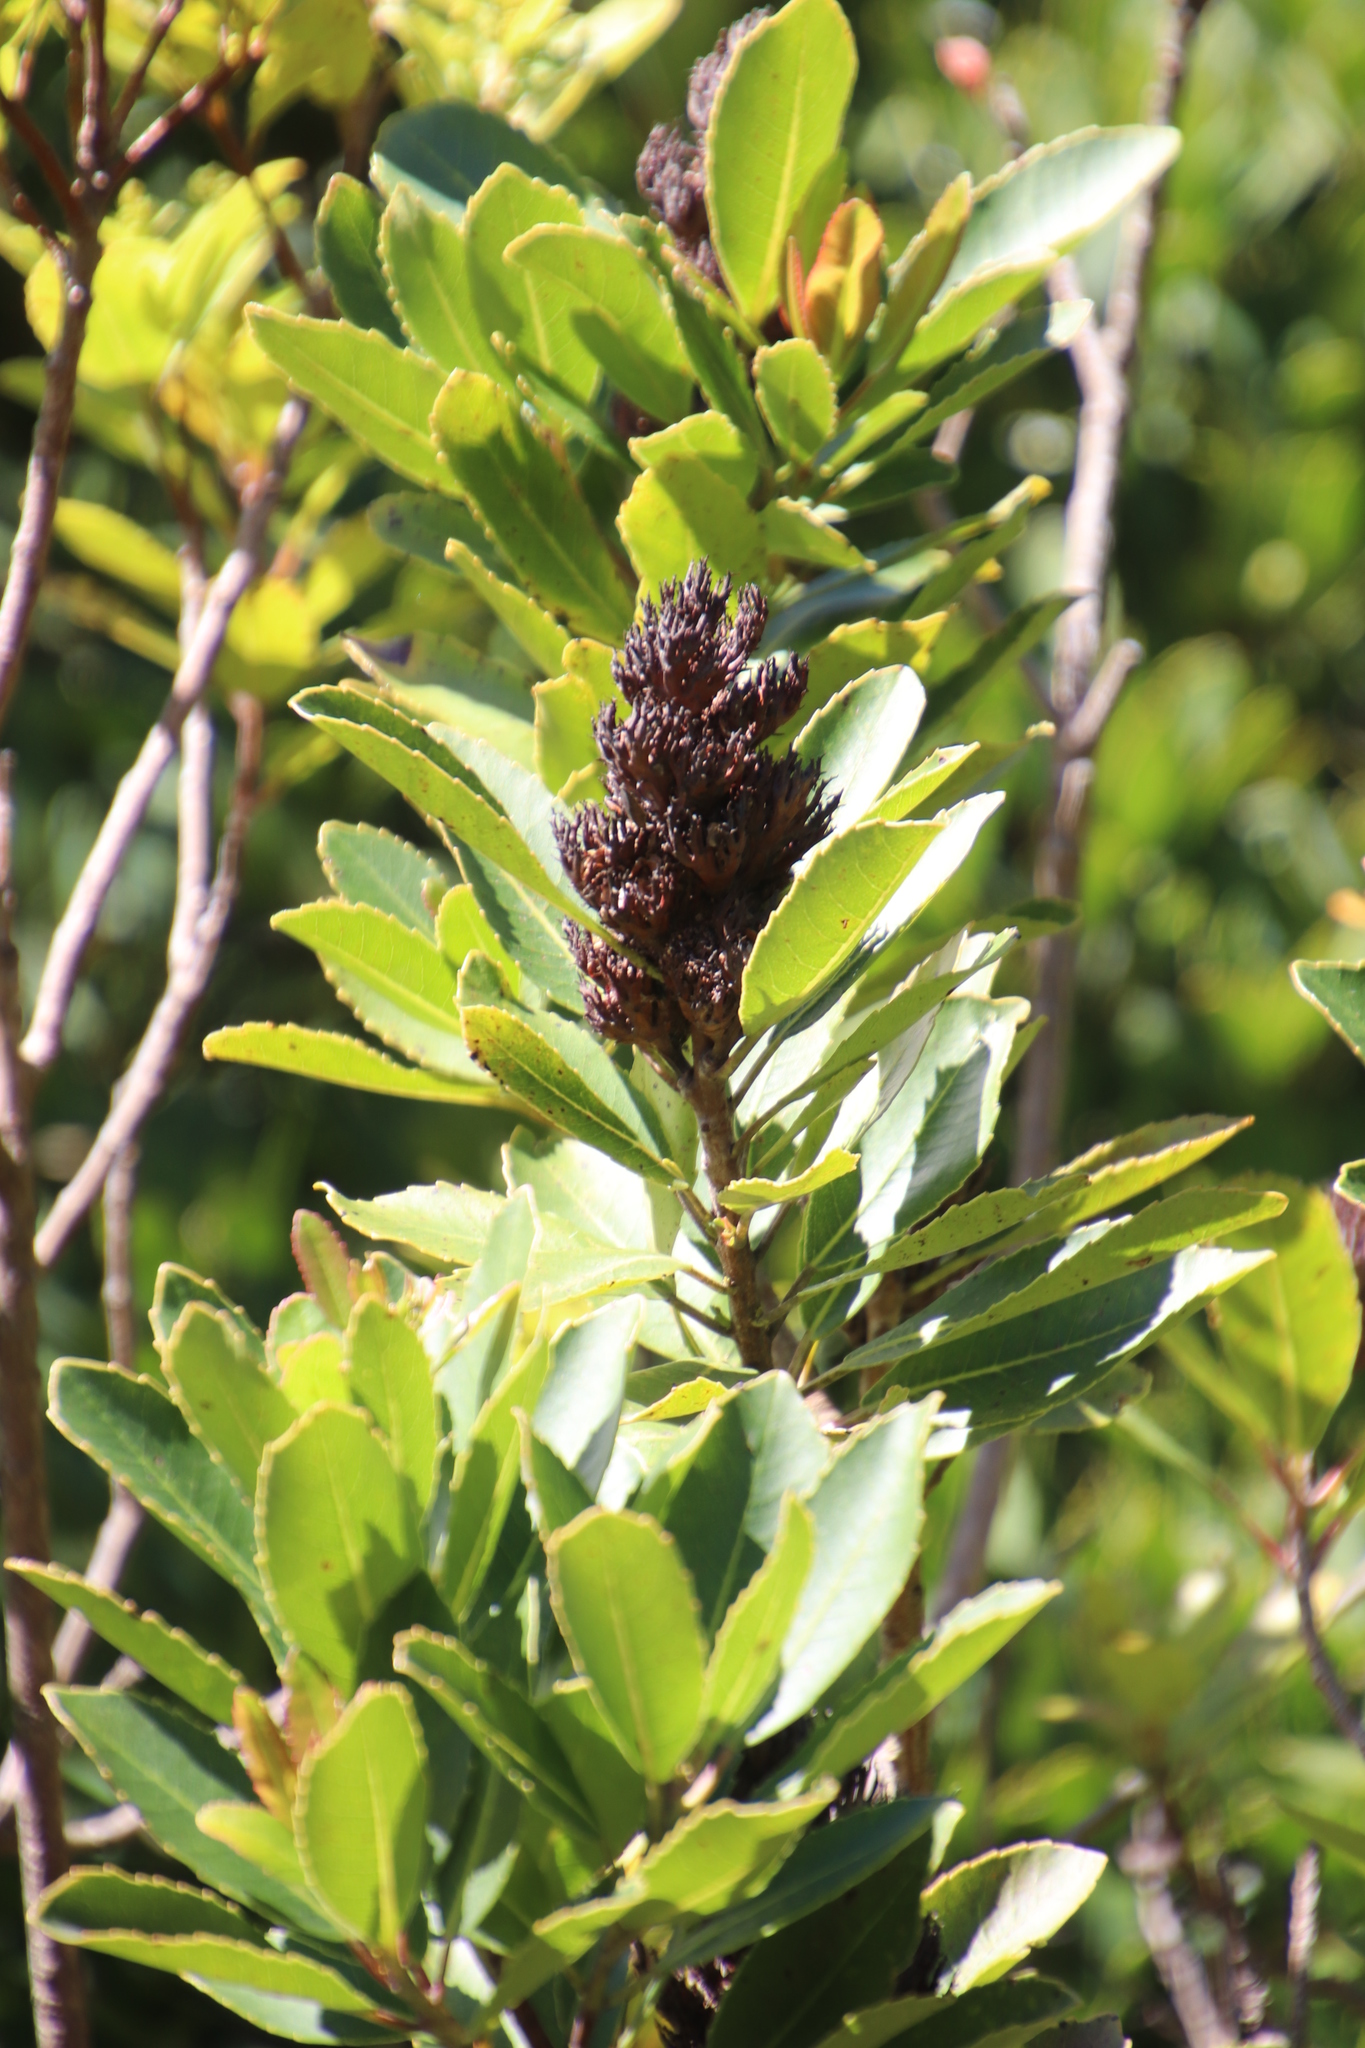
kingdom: Plantae
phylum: Tracheophyta
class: Magnoliopsida
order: Sapindales
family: Anacardiaceae
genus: Laurophyllus
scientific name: Laurophyllus capensis
